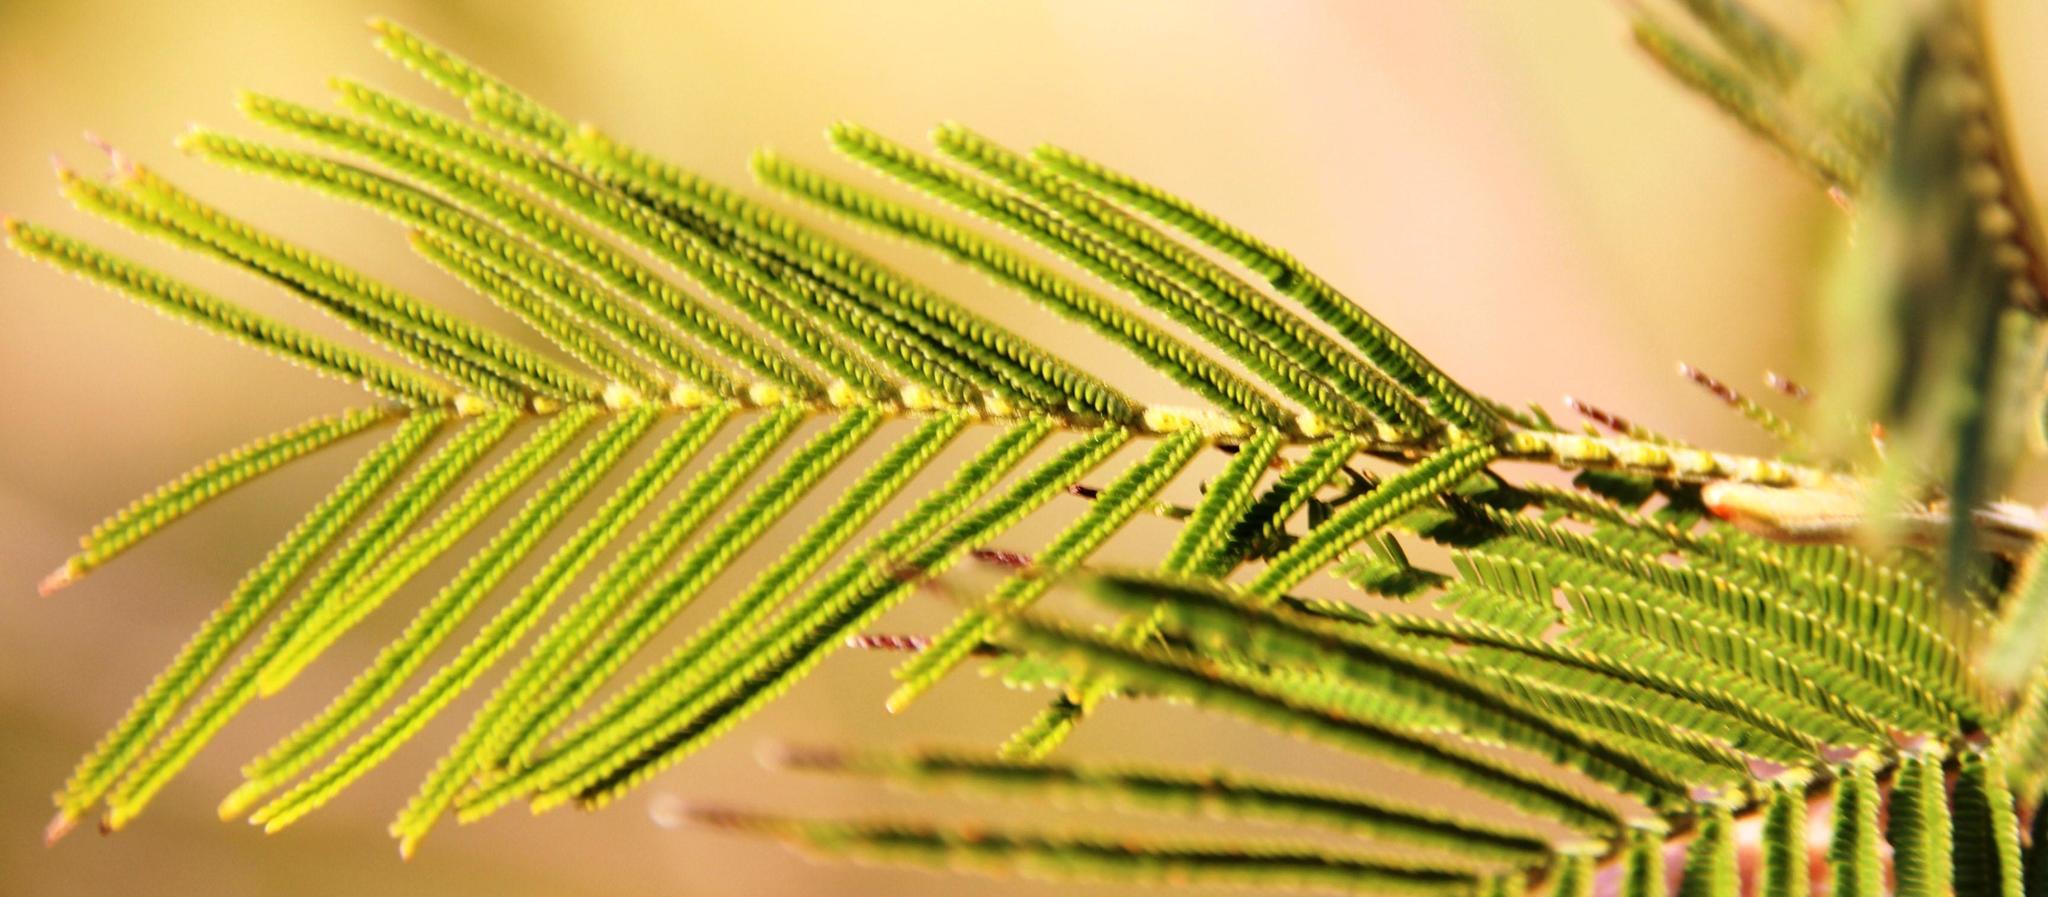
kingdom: Plantae
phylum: Tracheophyta
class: Magnoliopsida
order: Fabales
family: Fabaceae
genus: Acacia
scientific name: Acacia mearnsii
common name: Black wattle
